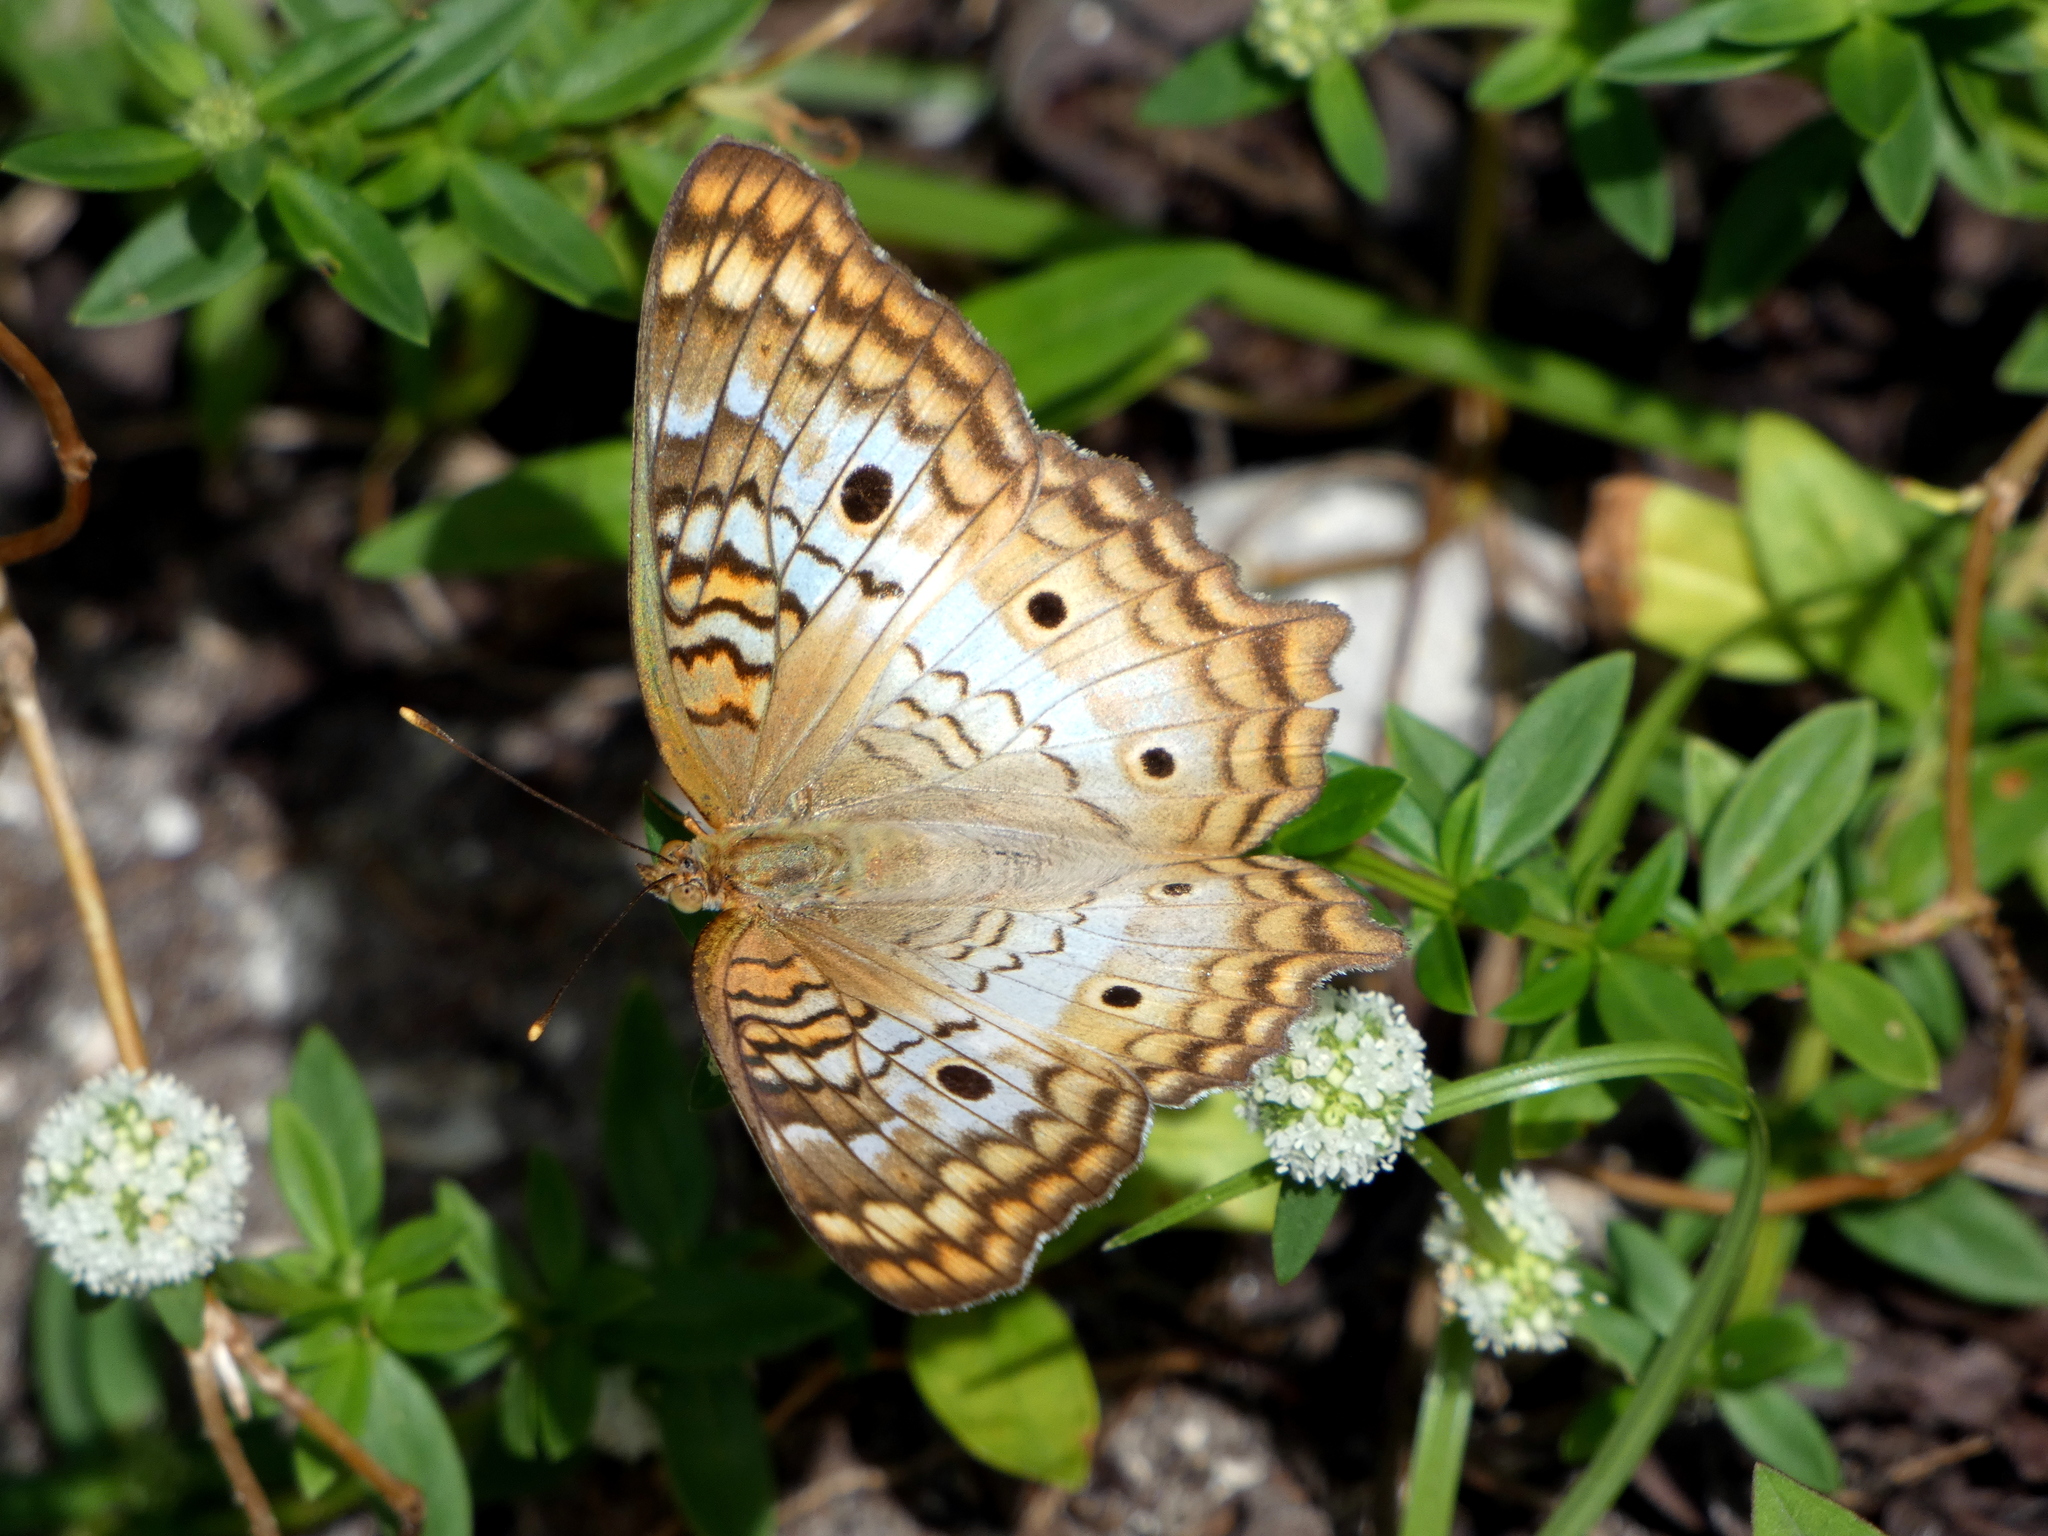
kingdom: Animalia
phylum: Arthropoda
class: Insecta
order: Lepidoptera
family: Nymphalidae
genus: Anartia
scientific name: Anartia jatrophae
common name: White peacock
